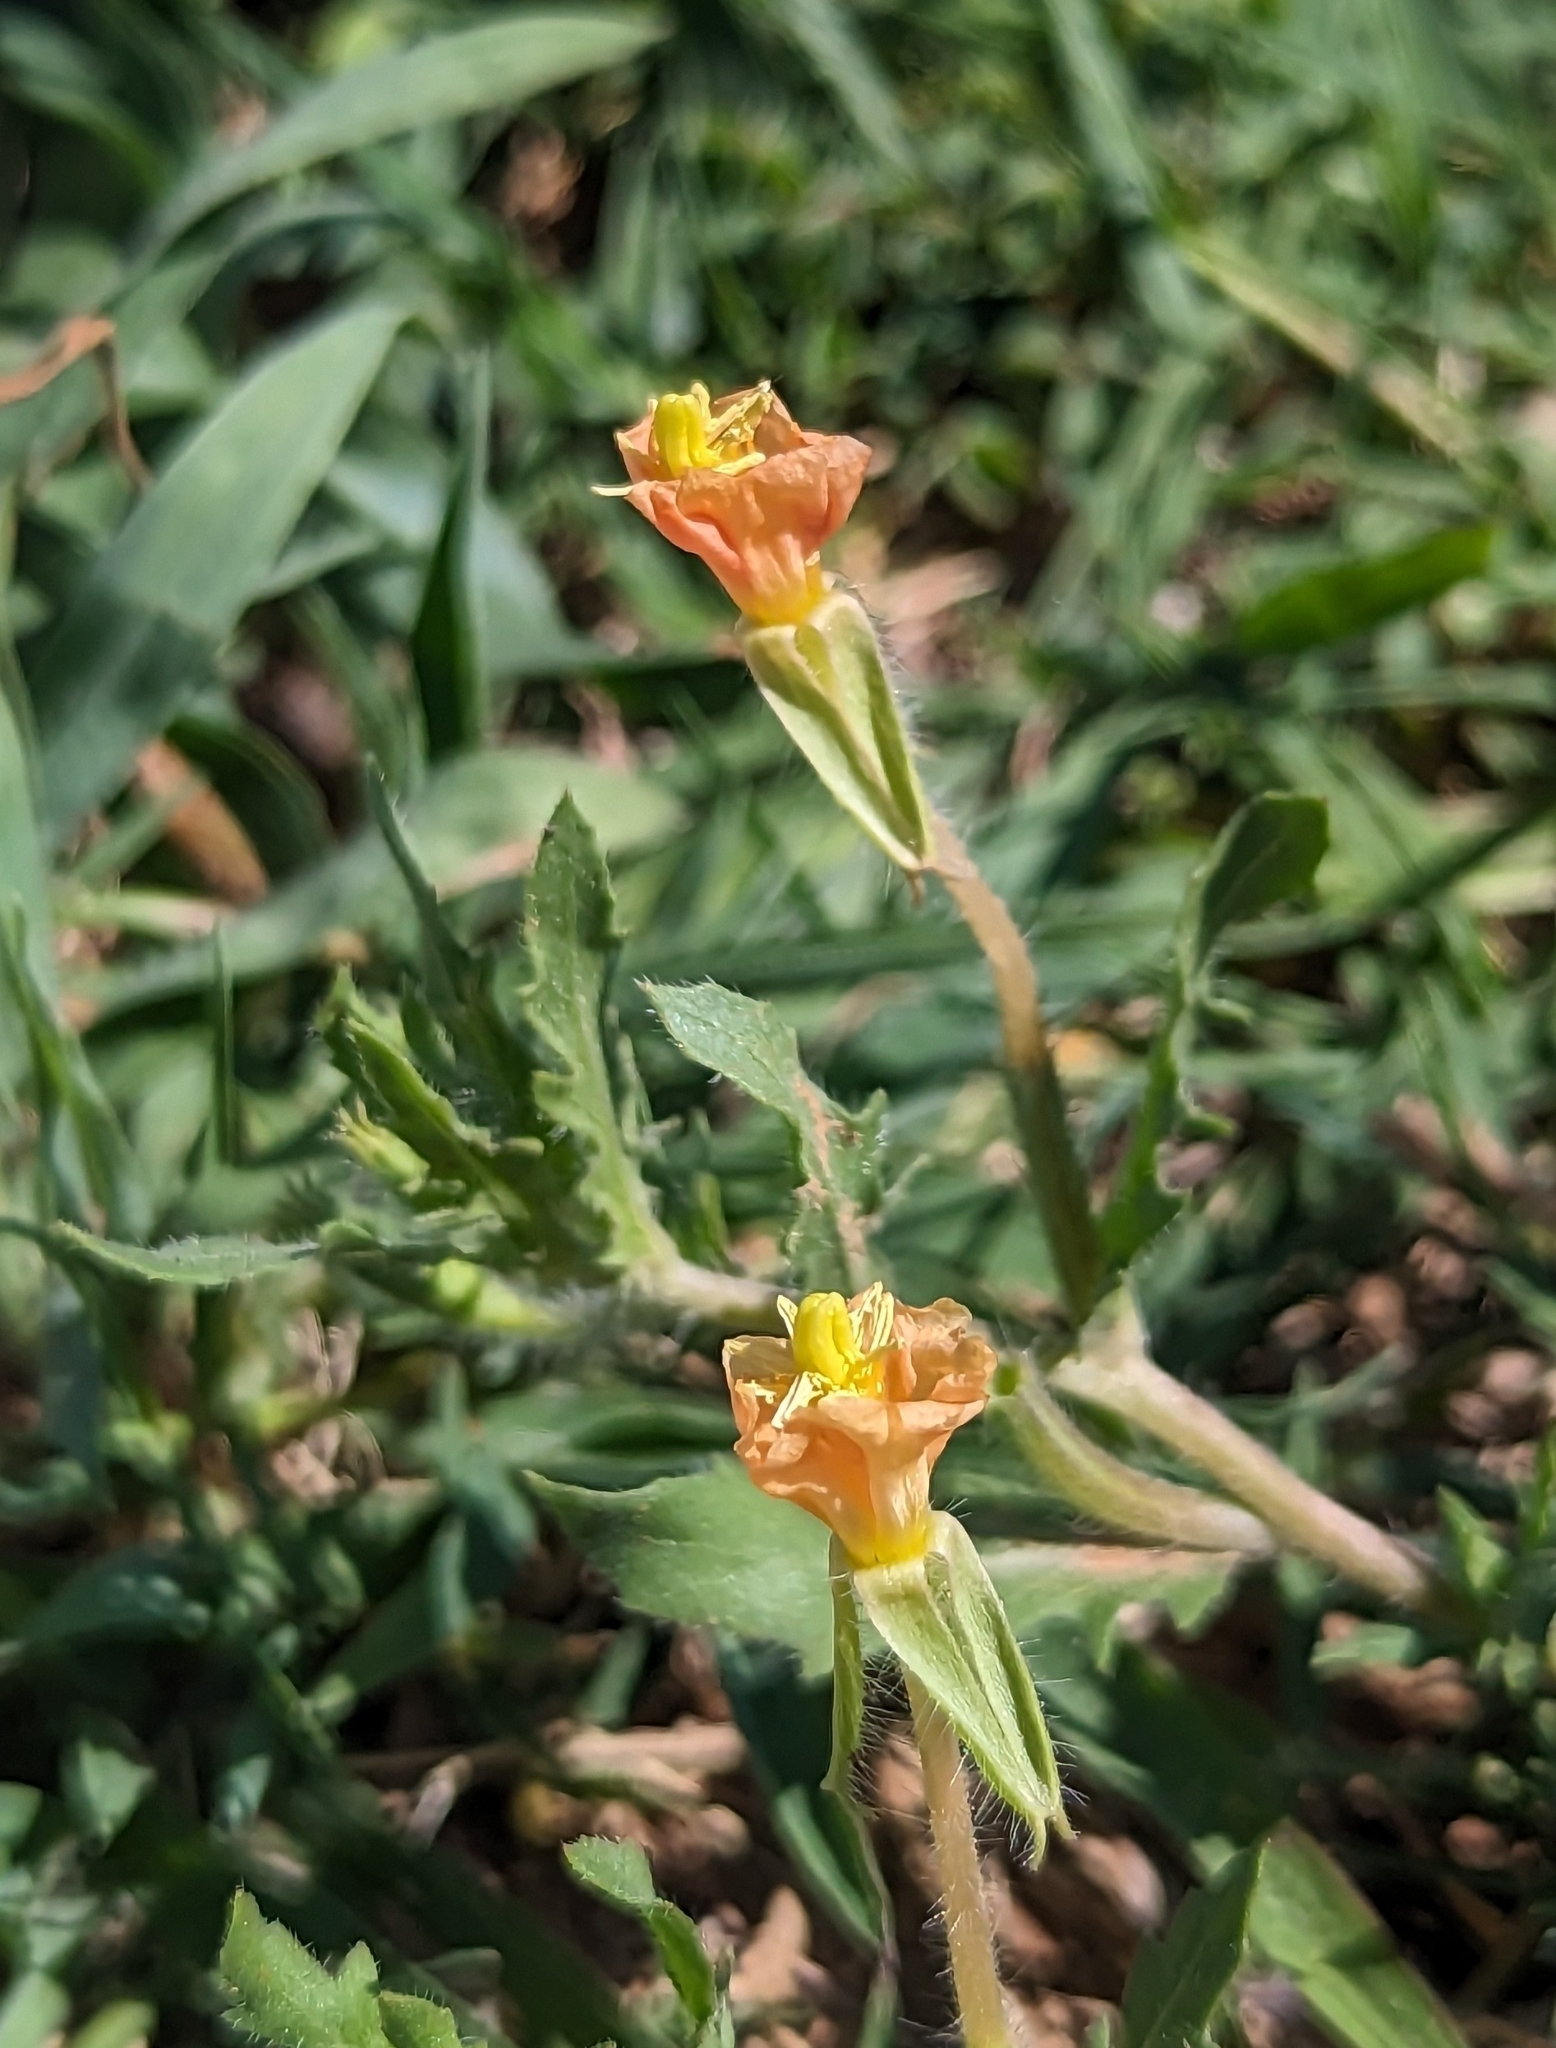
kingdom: Plantae
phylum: Tracheophyta
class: Magnoliopsida
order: Myrtales
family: Onagraceae
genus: Oenothera
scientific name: Oenothera laciniata
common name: Cut-leaved evening-primrose
